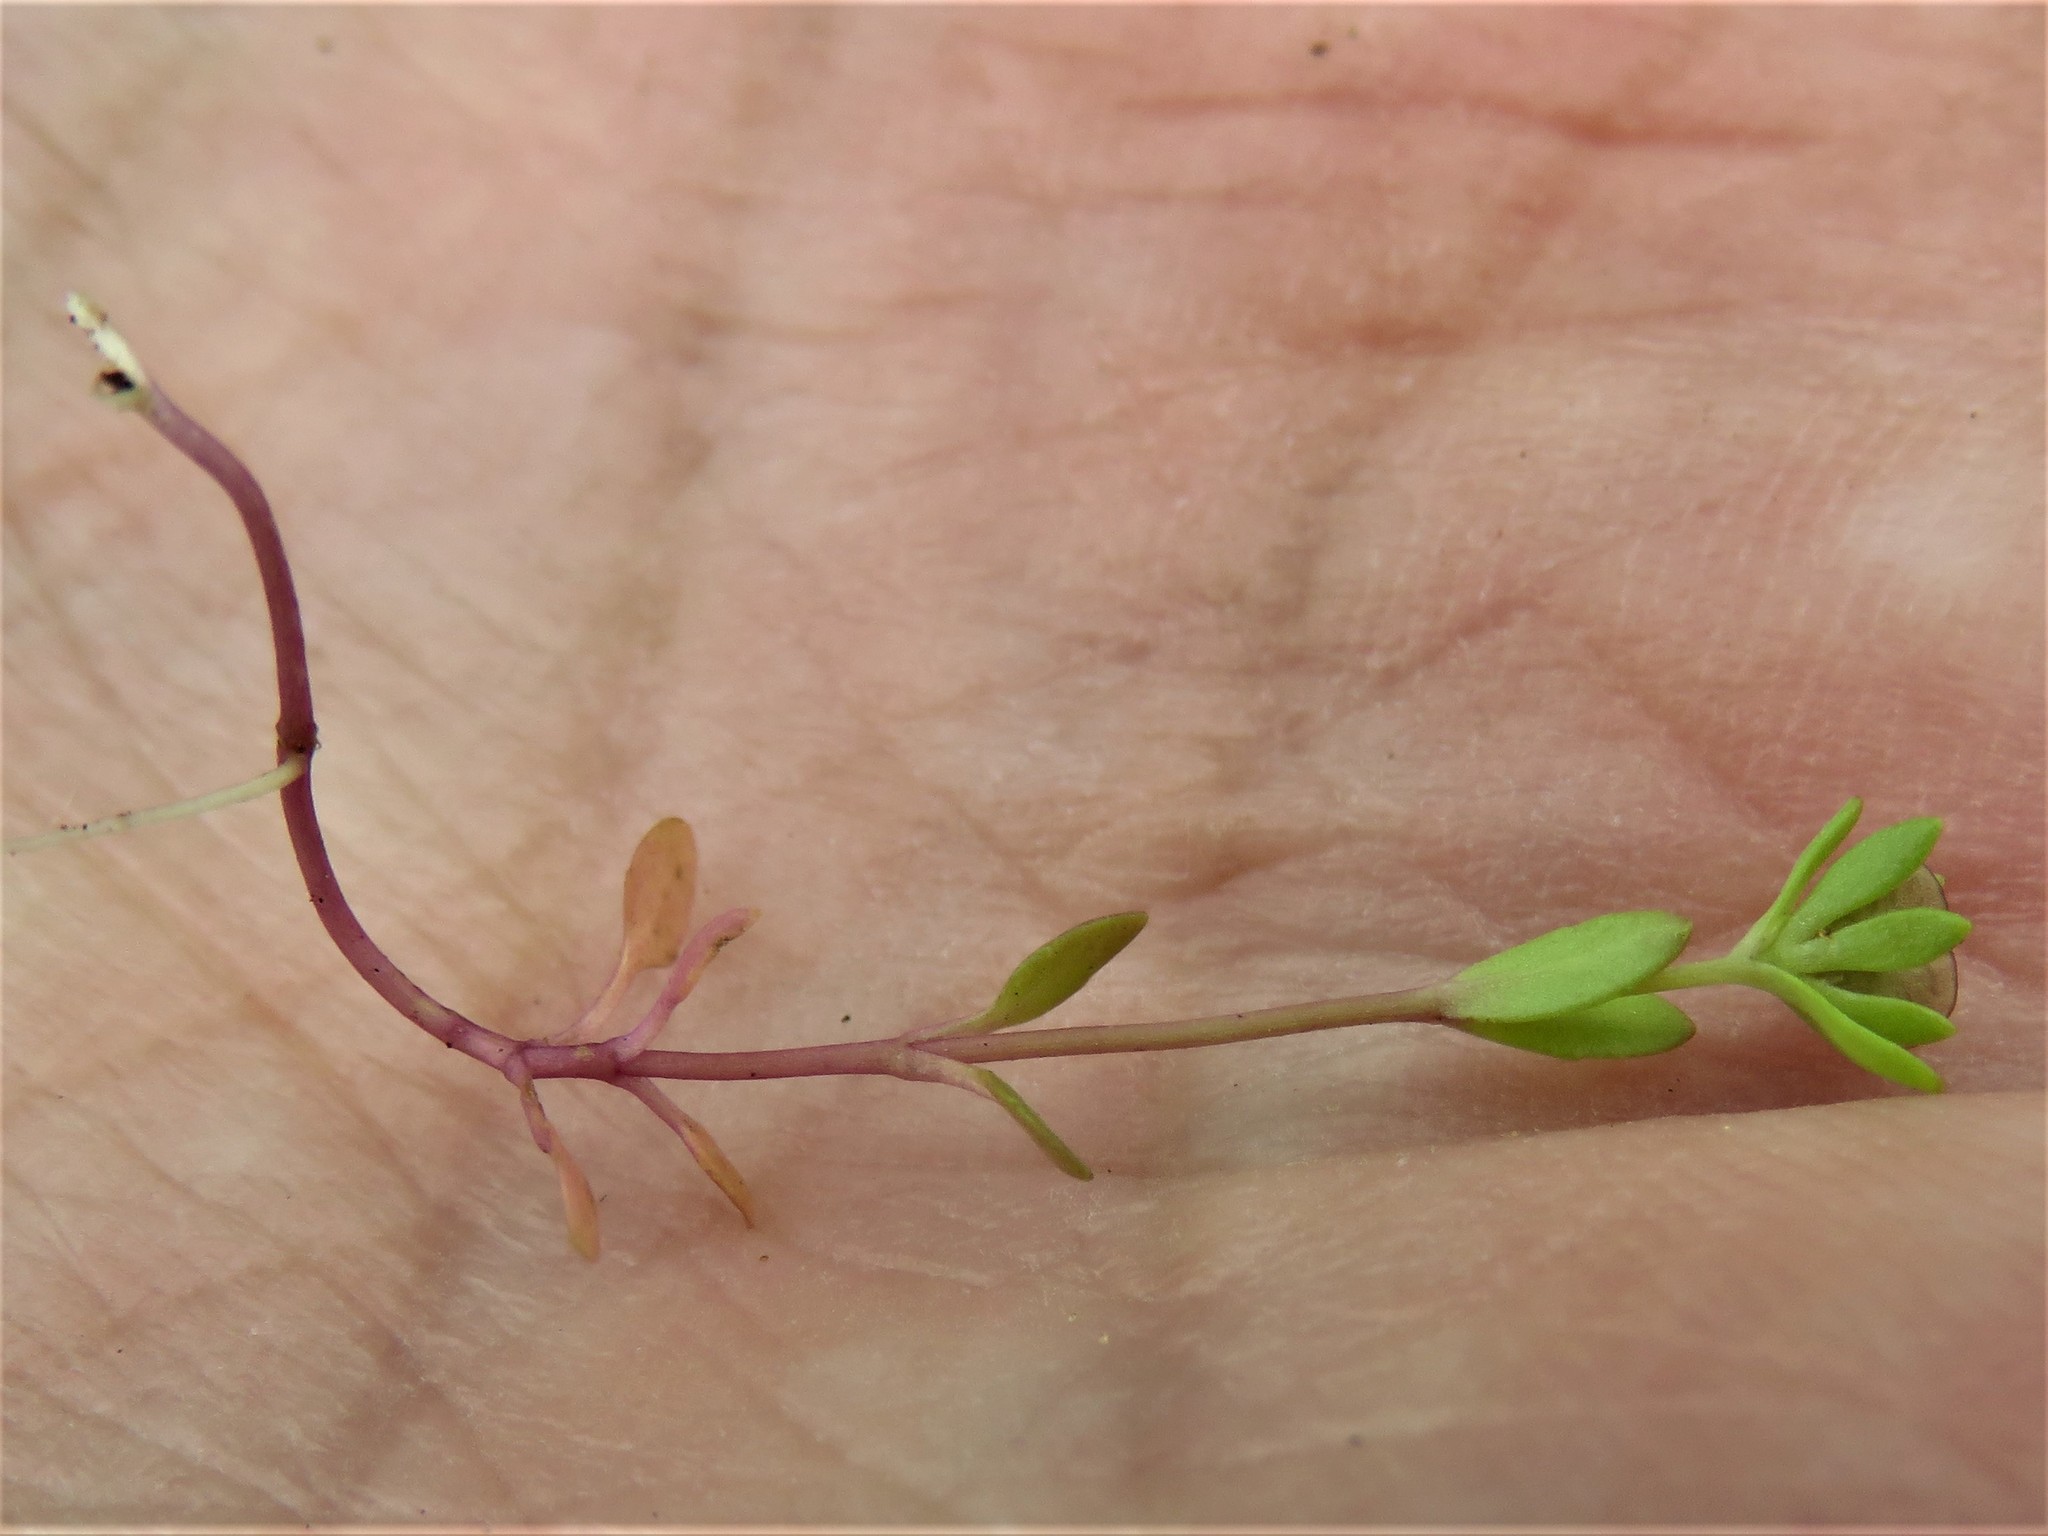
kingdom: Plantae
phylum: Tracheophyta
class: Magnoliopsida
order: Lamiales
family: Plantaginaceae
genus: Veronica
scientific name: Veronica peregrina
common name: Neckweed
